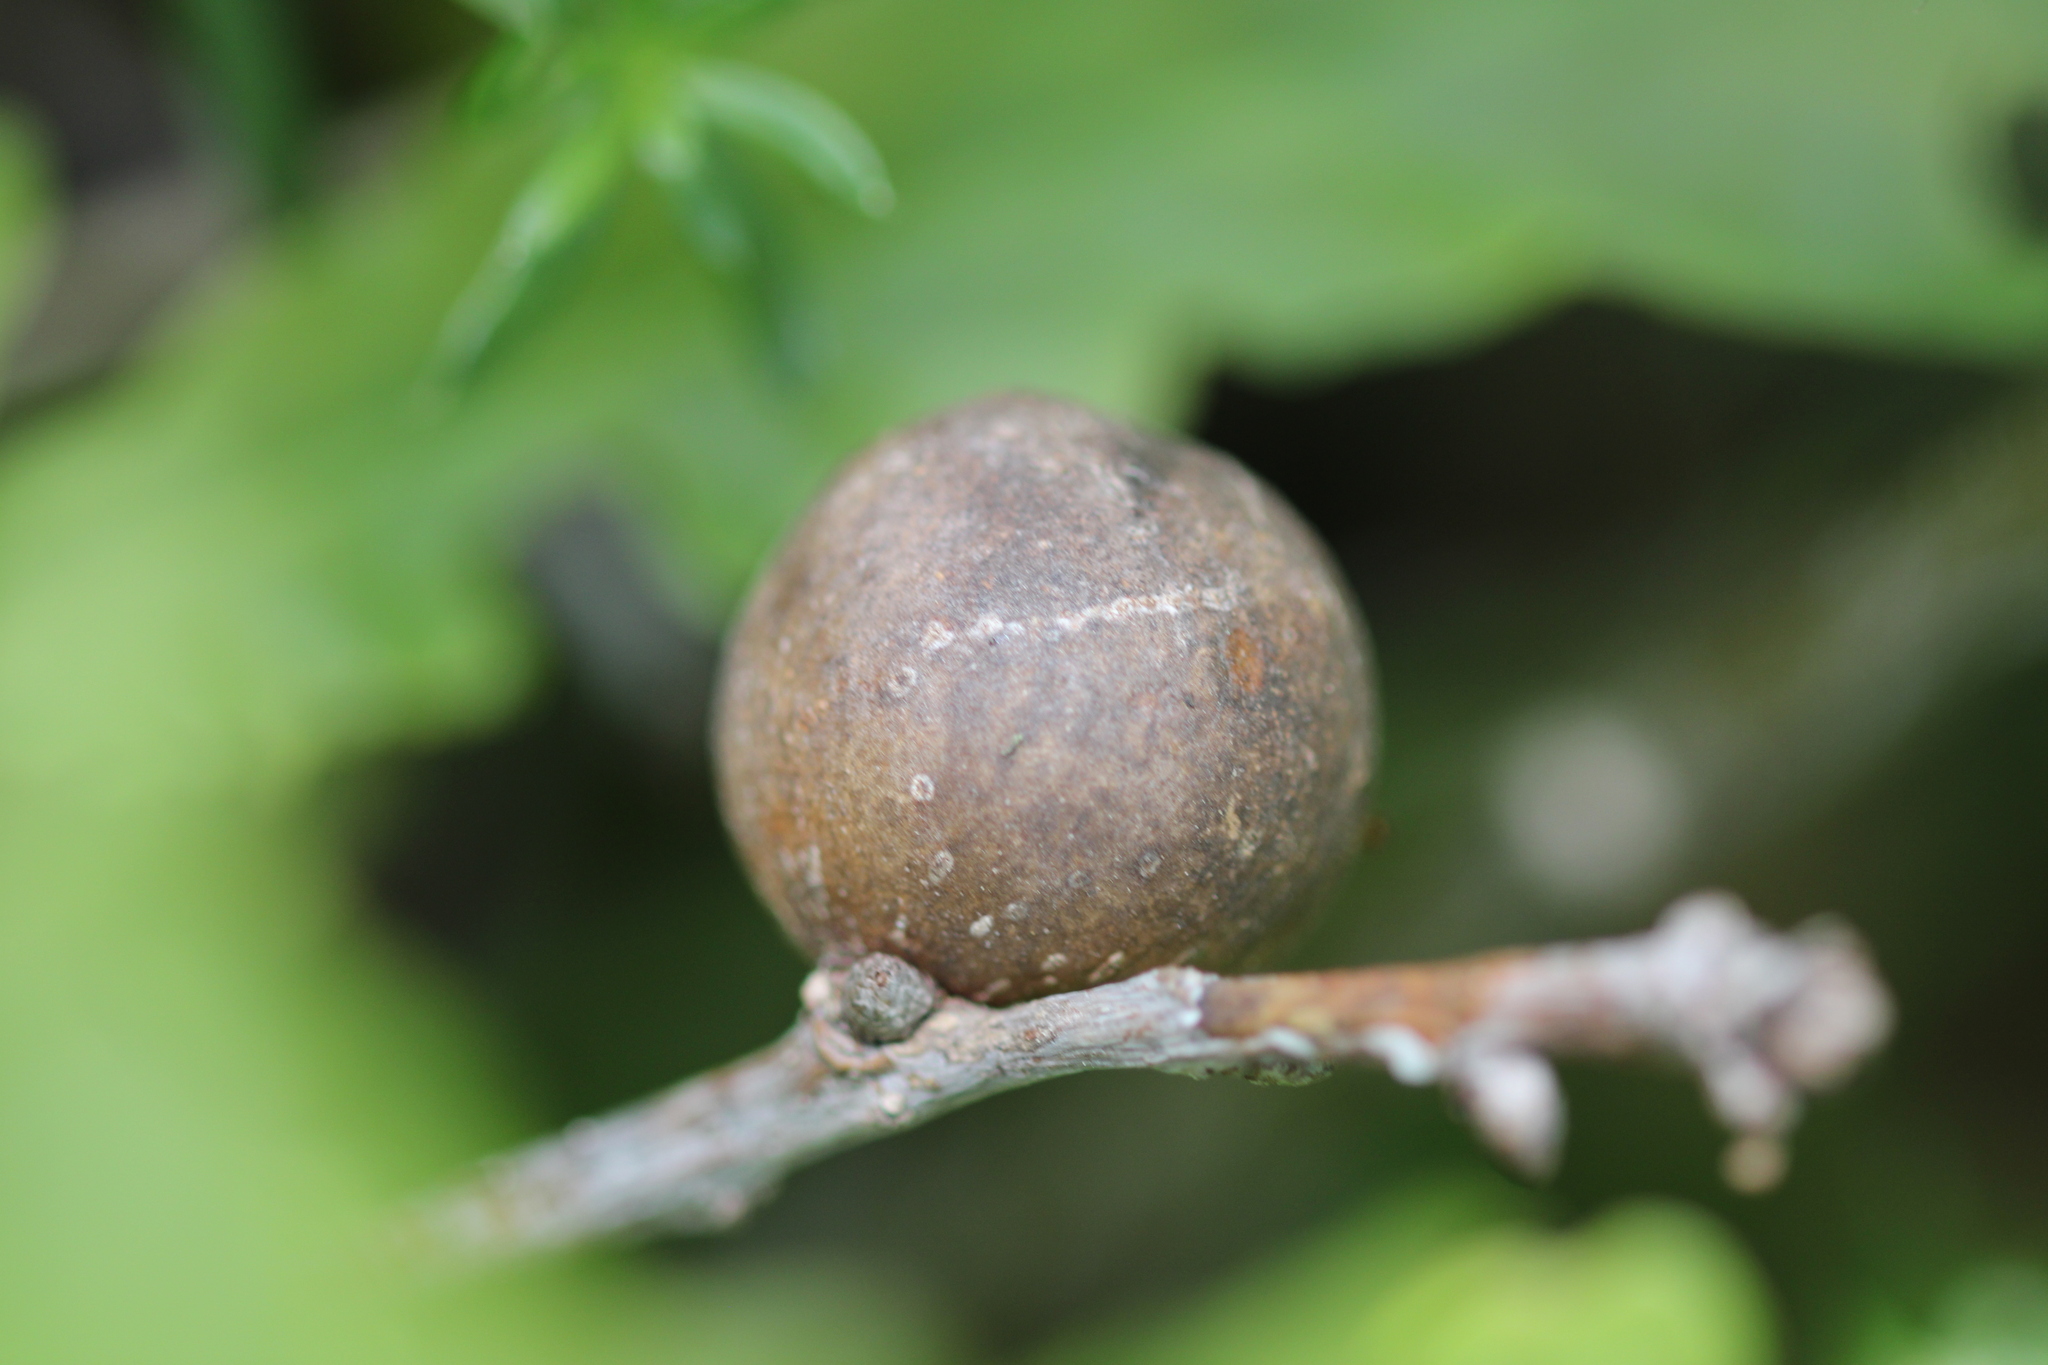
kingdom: Animalia
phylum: Arthropoda
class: Insecta
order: Hymenoptera
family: Cynipidae
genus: Andricus
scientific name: Andricus kollari
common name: Marble gall
